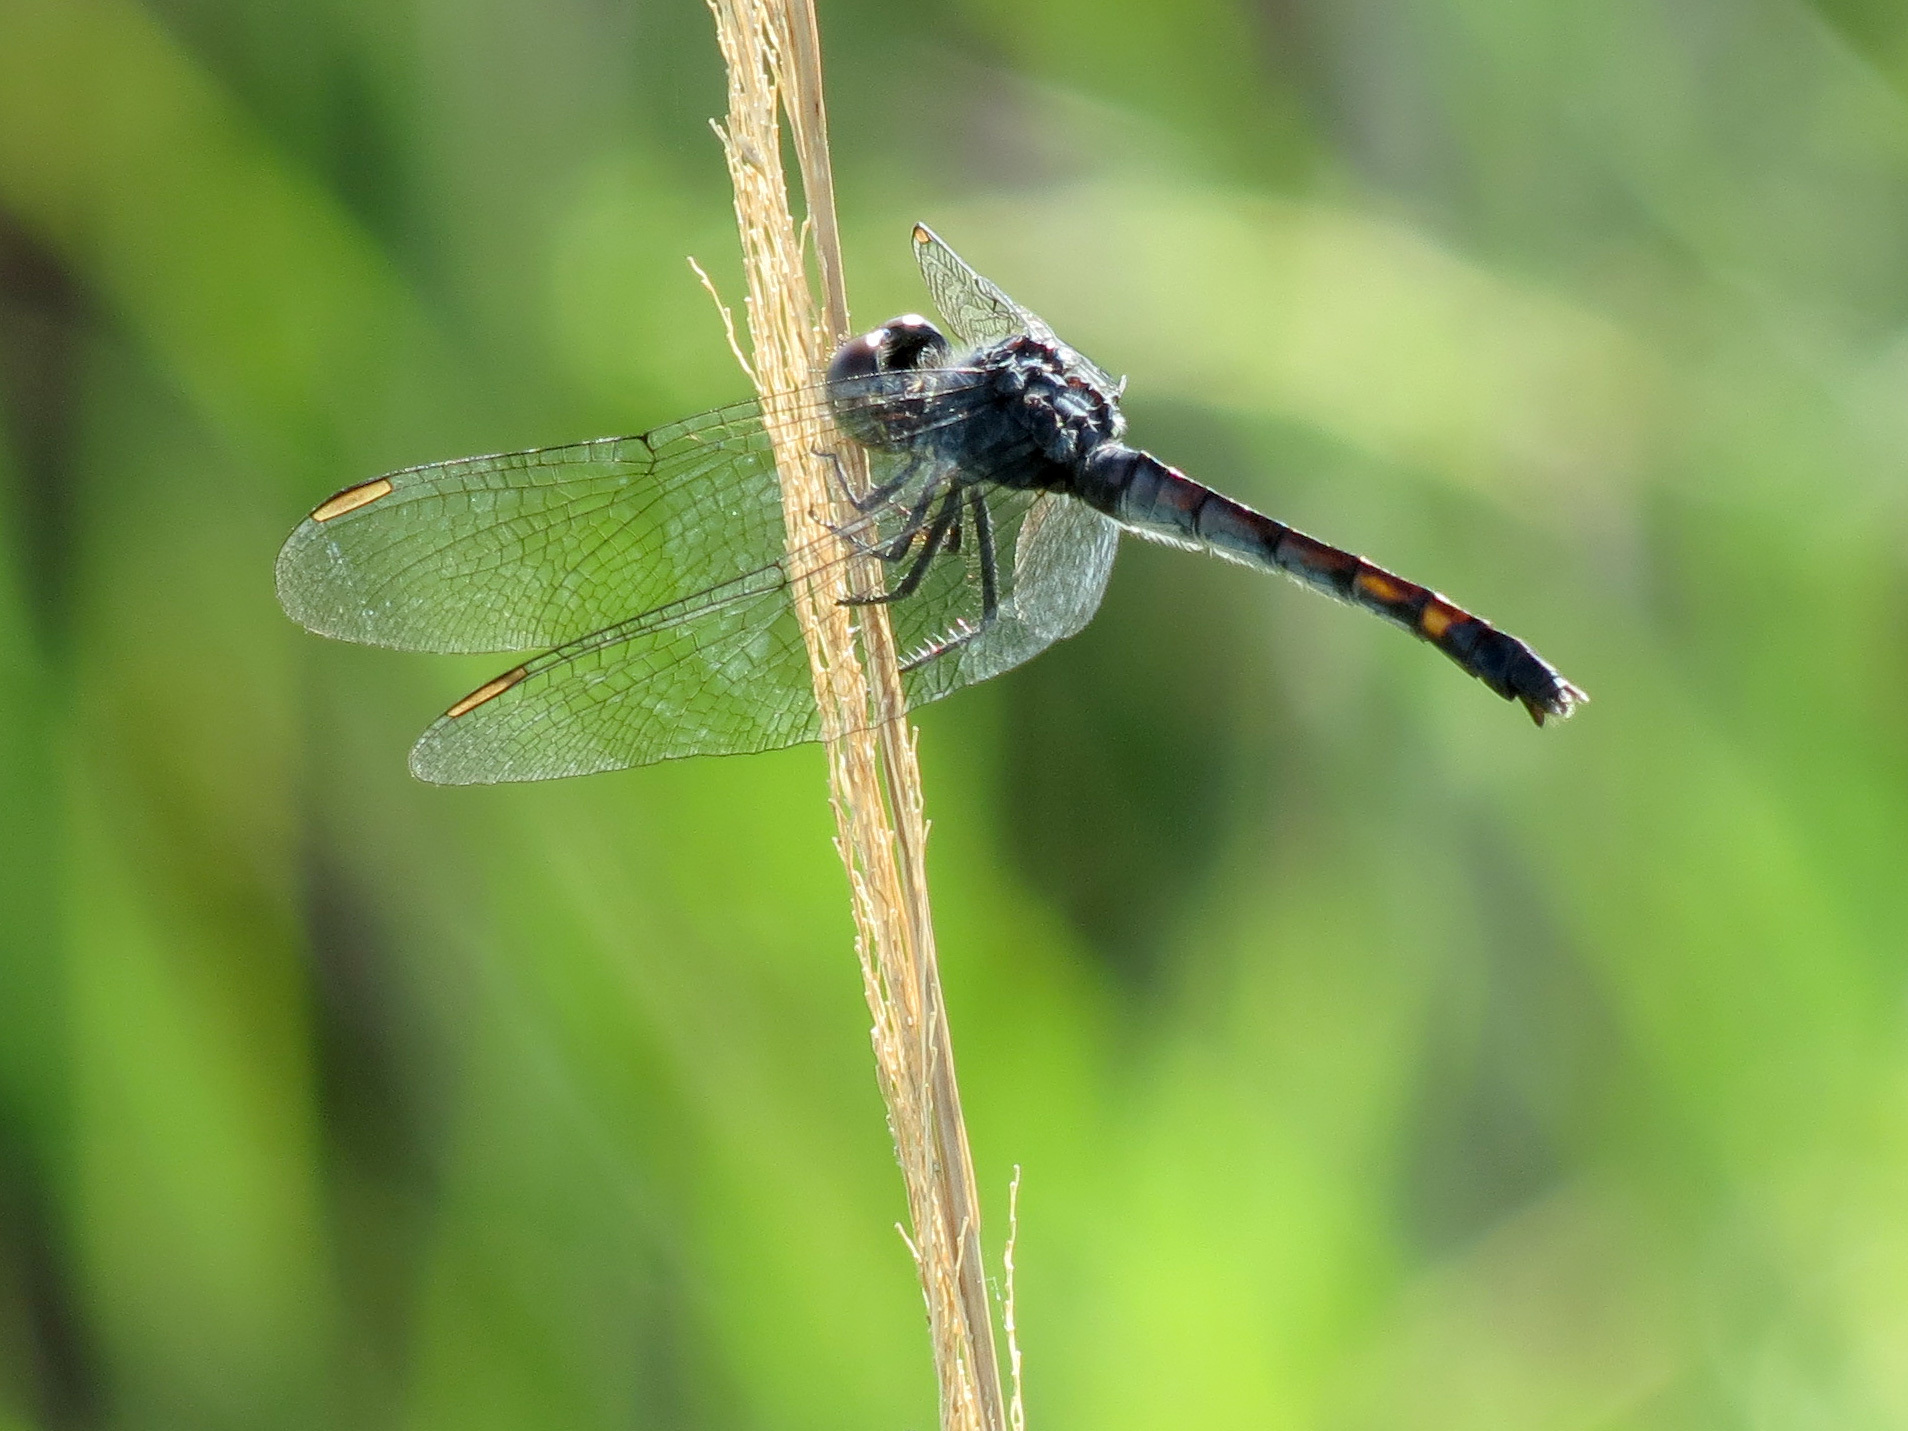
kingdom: Animalia
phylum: Arthropoda
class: Insecta
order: Odonata
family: Libellulidae
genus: Erythrodiplax
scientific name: Erythrodiplax berenice
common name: Seaside dragonlet
